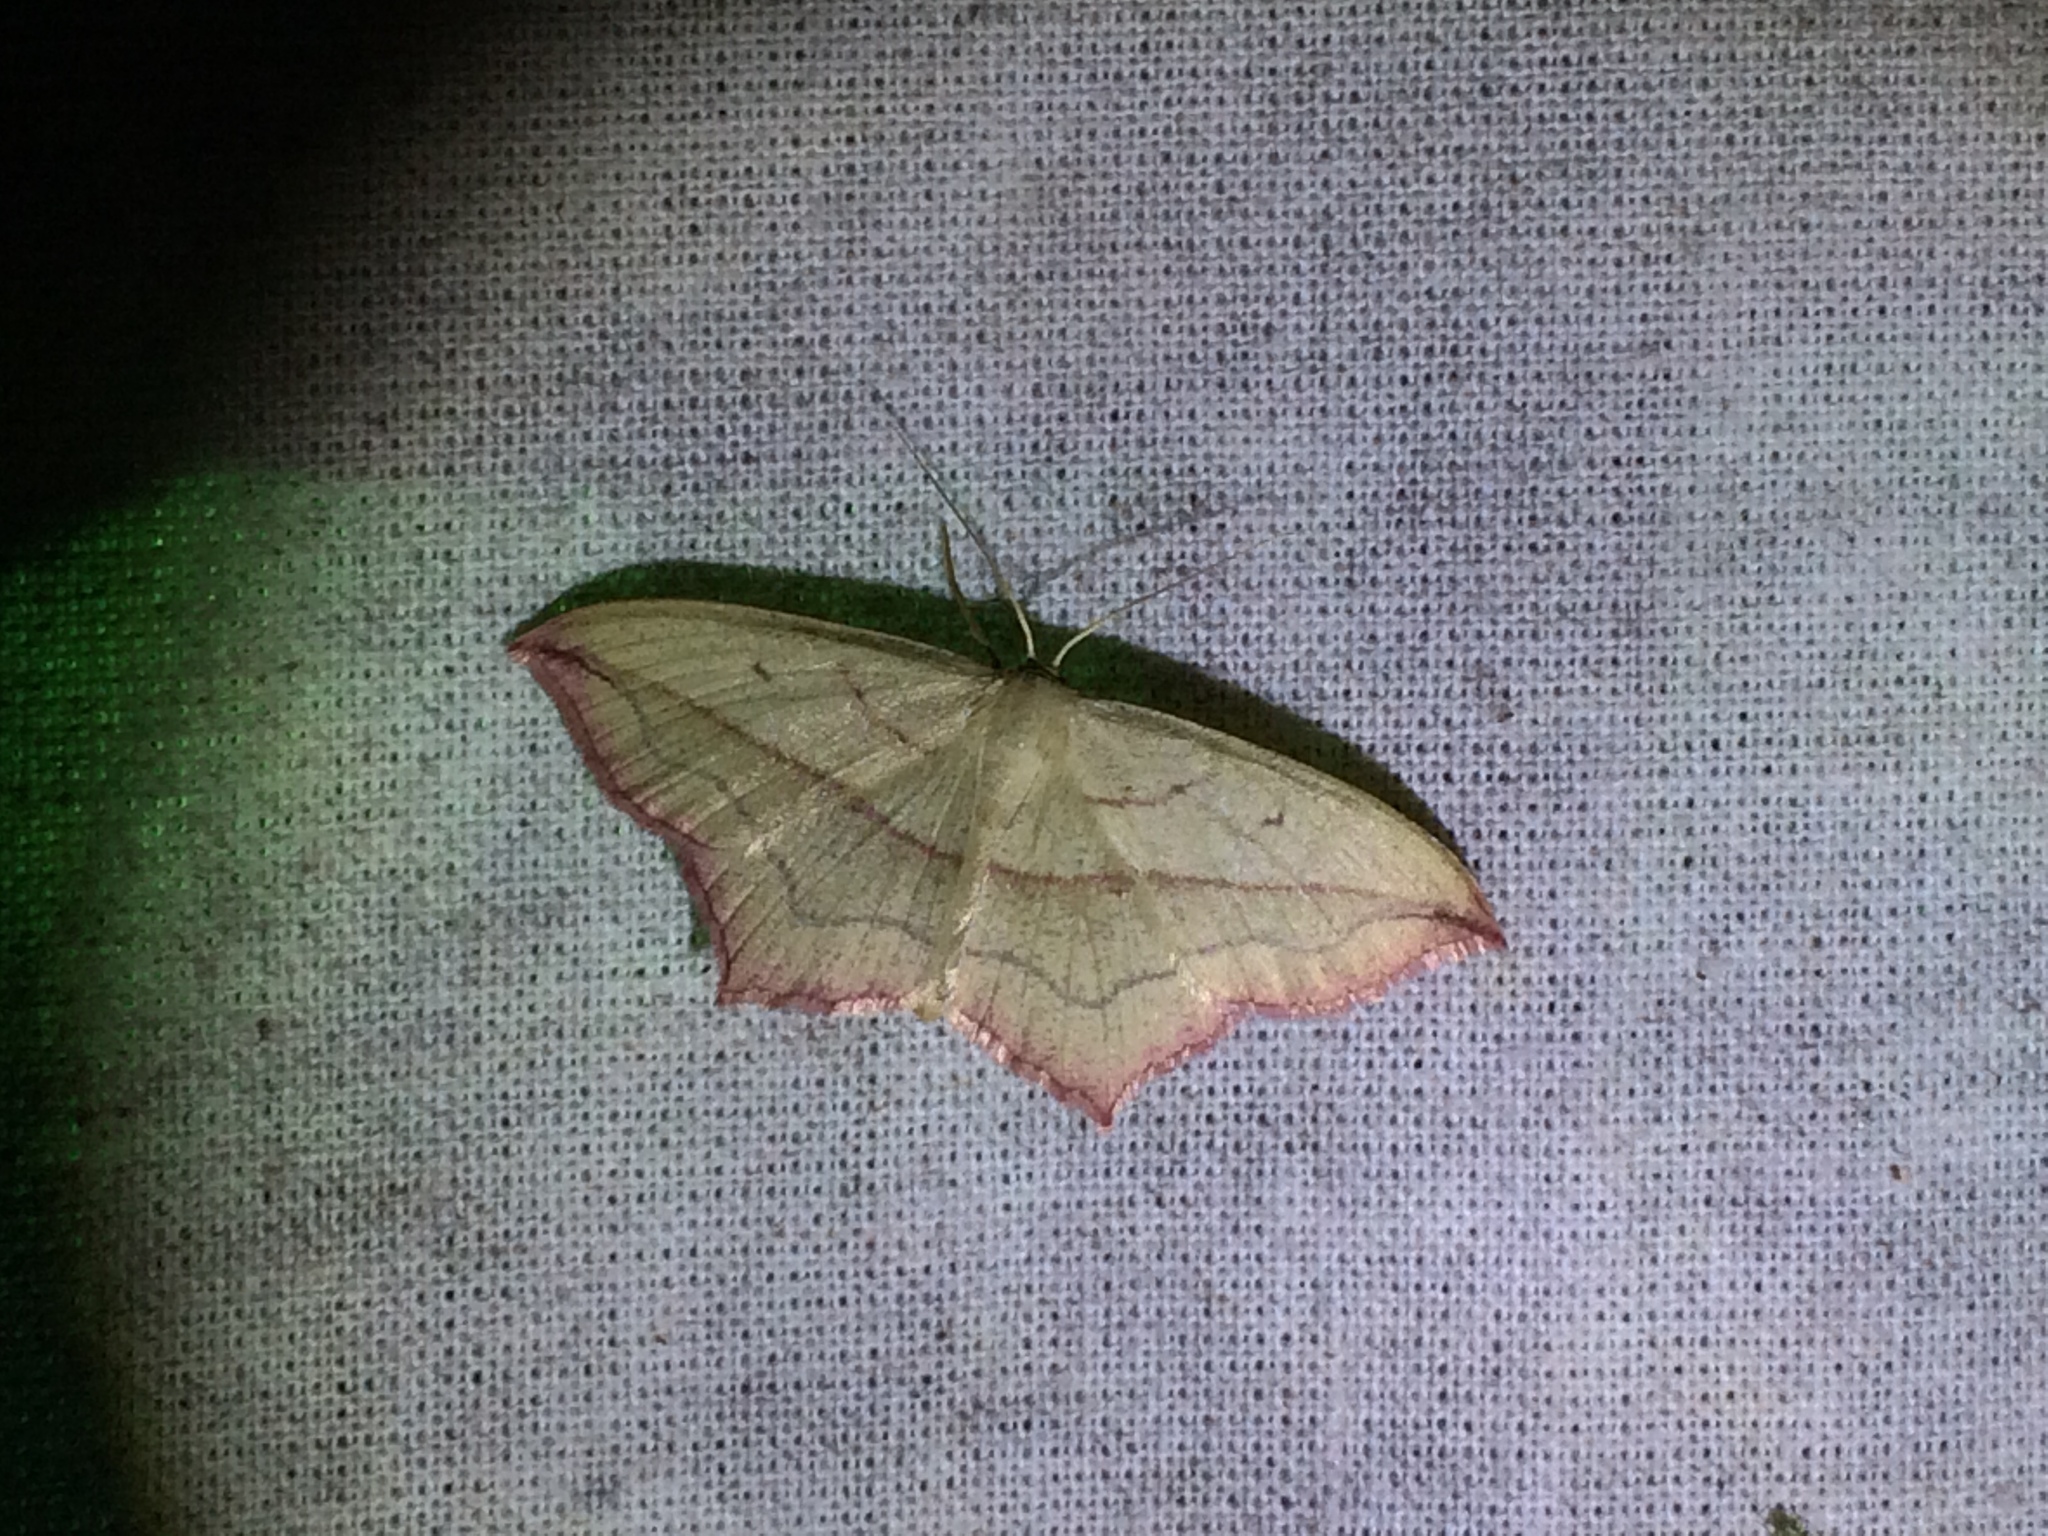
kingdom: Animalia
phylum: Arthropoda
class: Insecta
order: Lepidoptera
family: Geometridae
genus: Timandra
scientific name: Timandra comae
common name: Blood-vein
